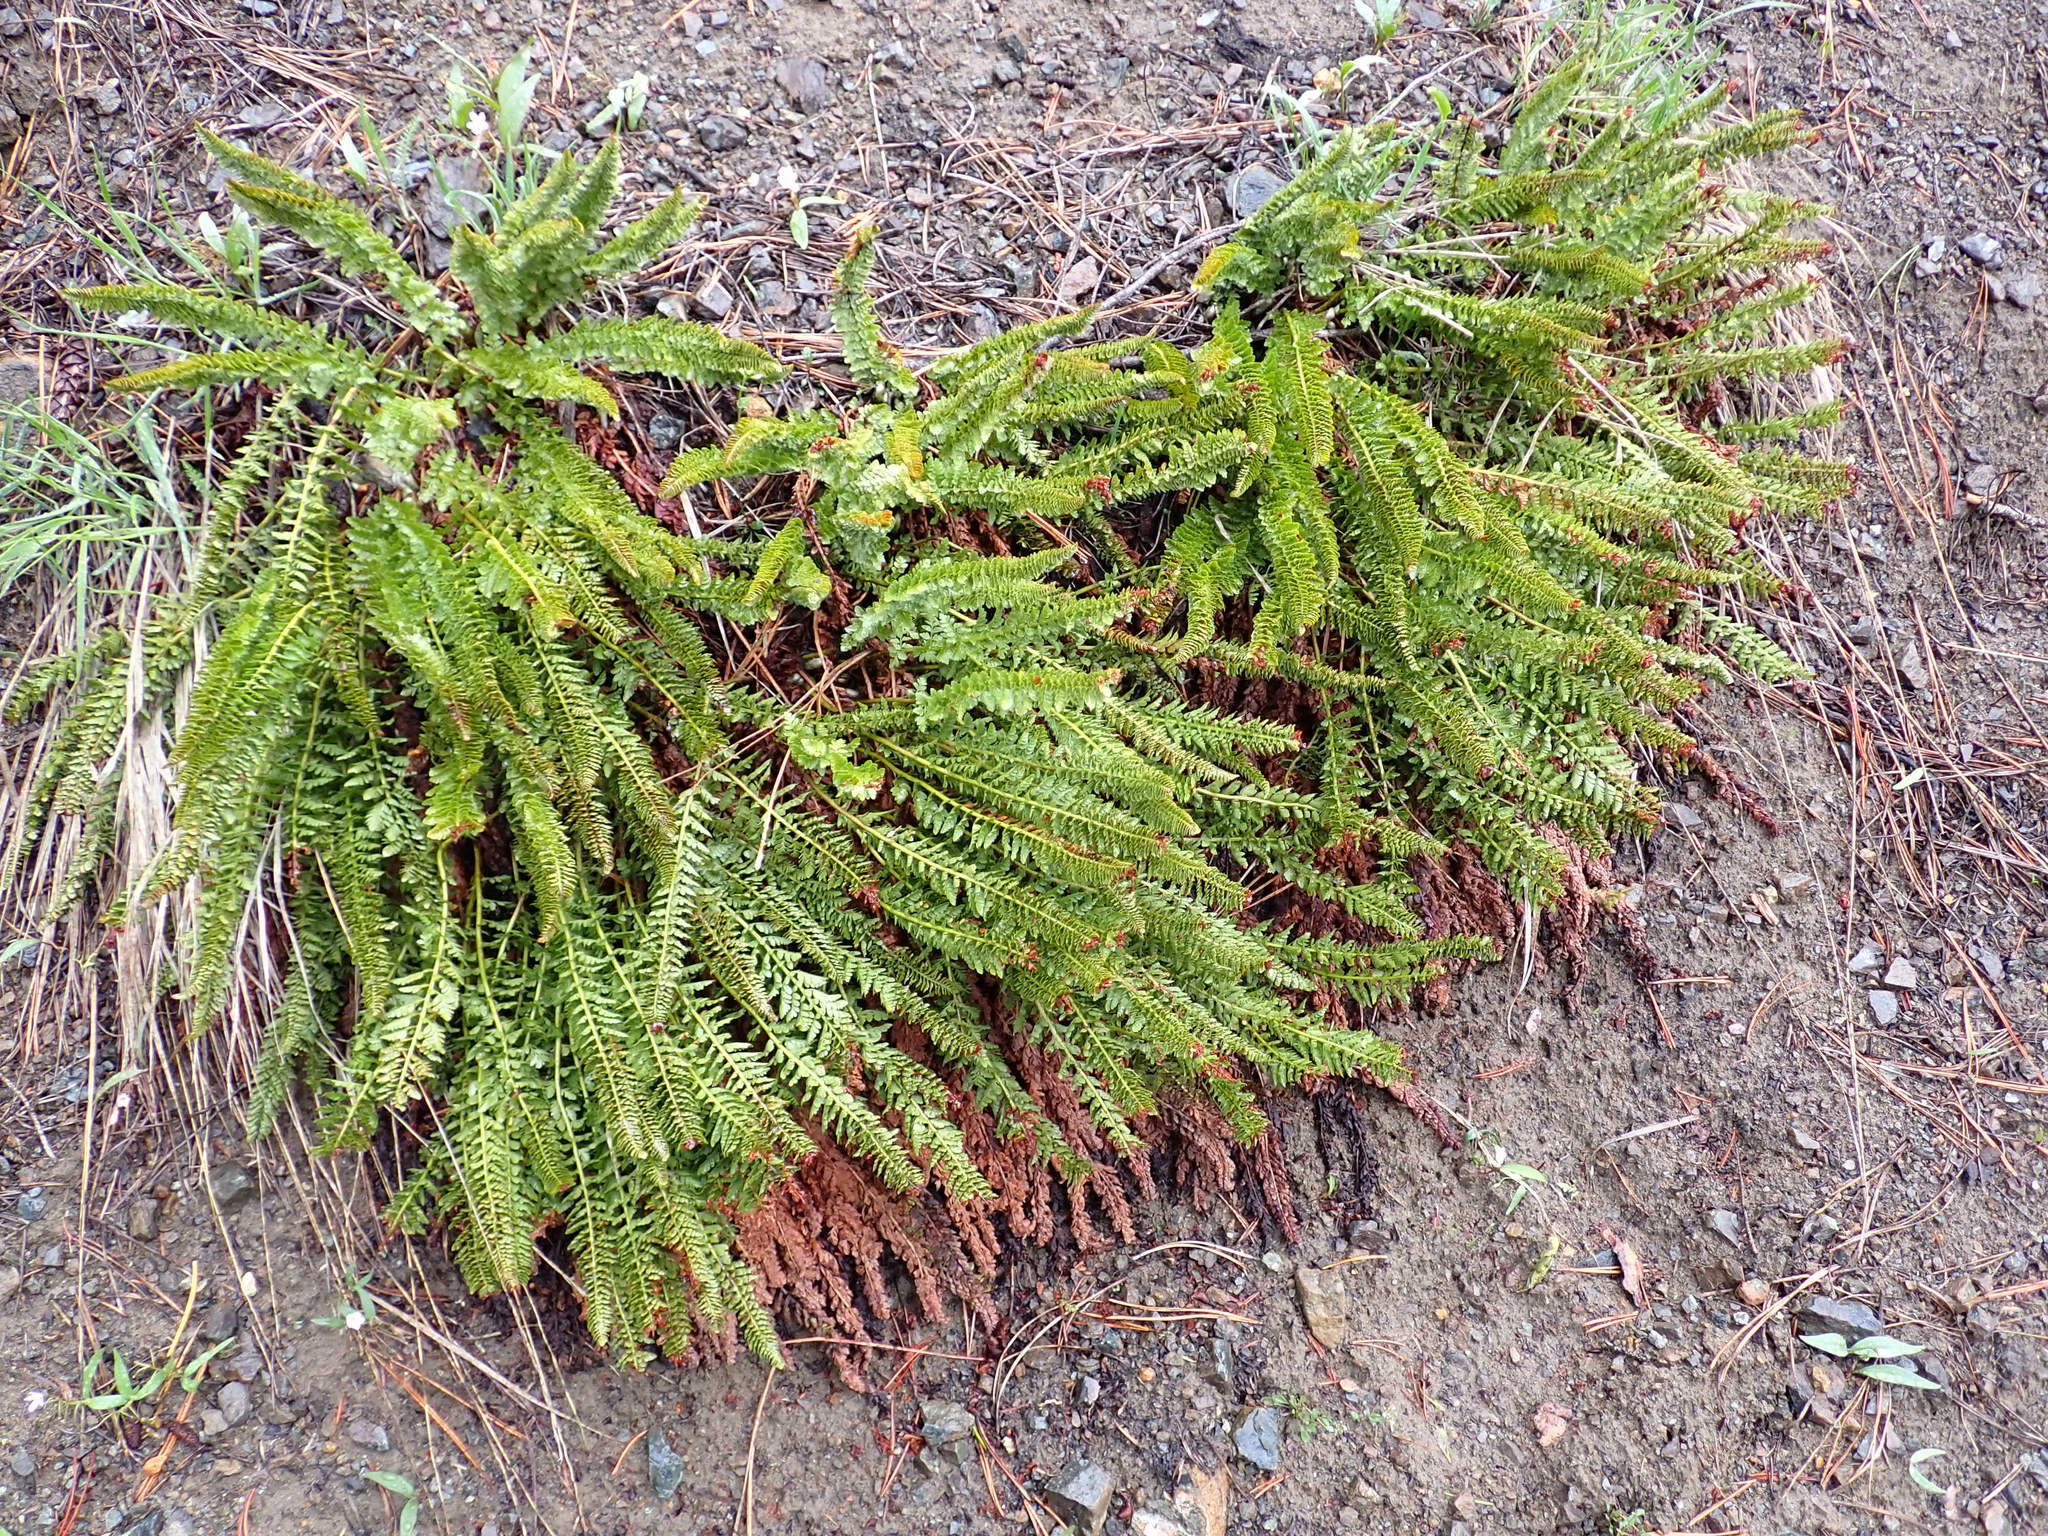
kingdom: Plantae
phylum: Tracheophyta
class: Polypodiopsida
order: Polypodiales
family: Dryopteridaceae
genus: Polystichum
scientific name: Polystichum lemmonii
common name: Lemmon's holly fern
